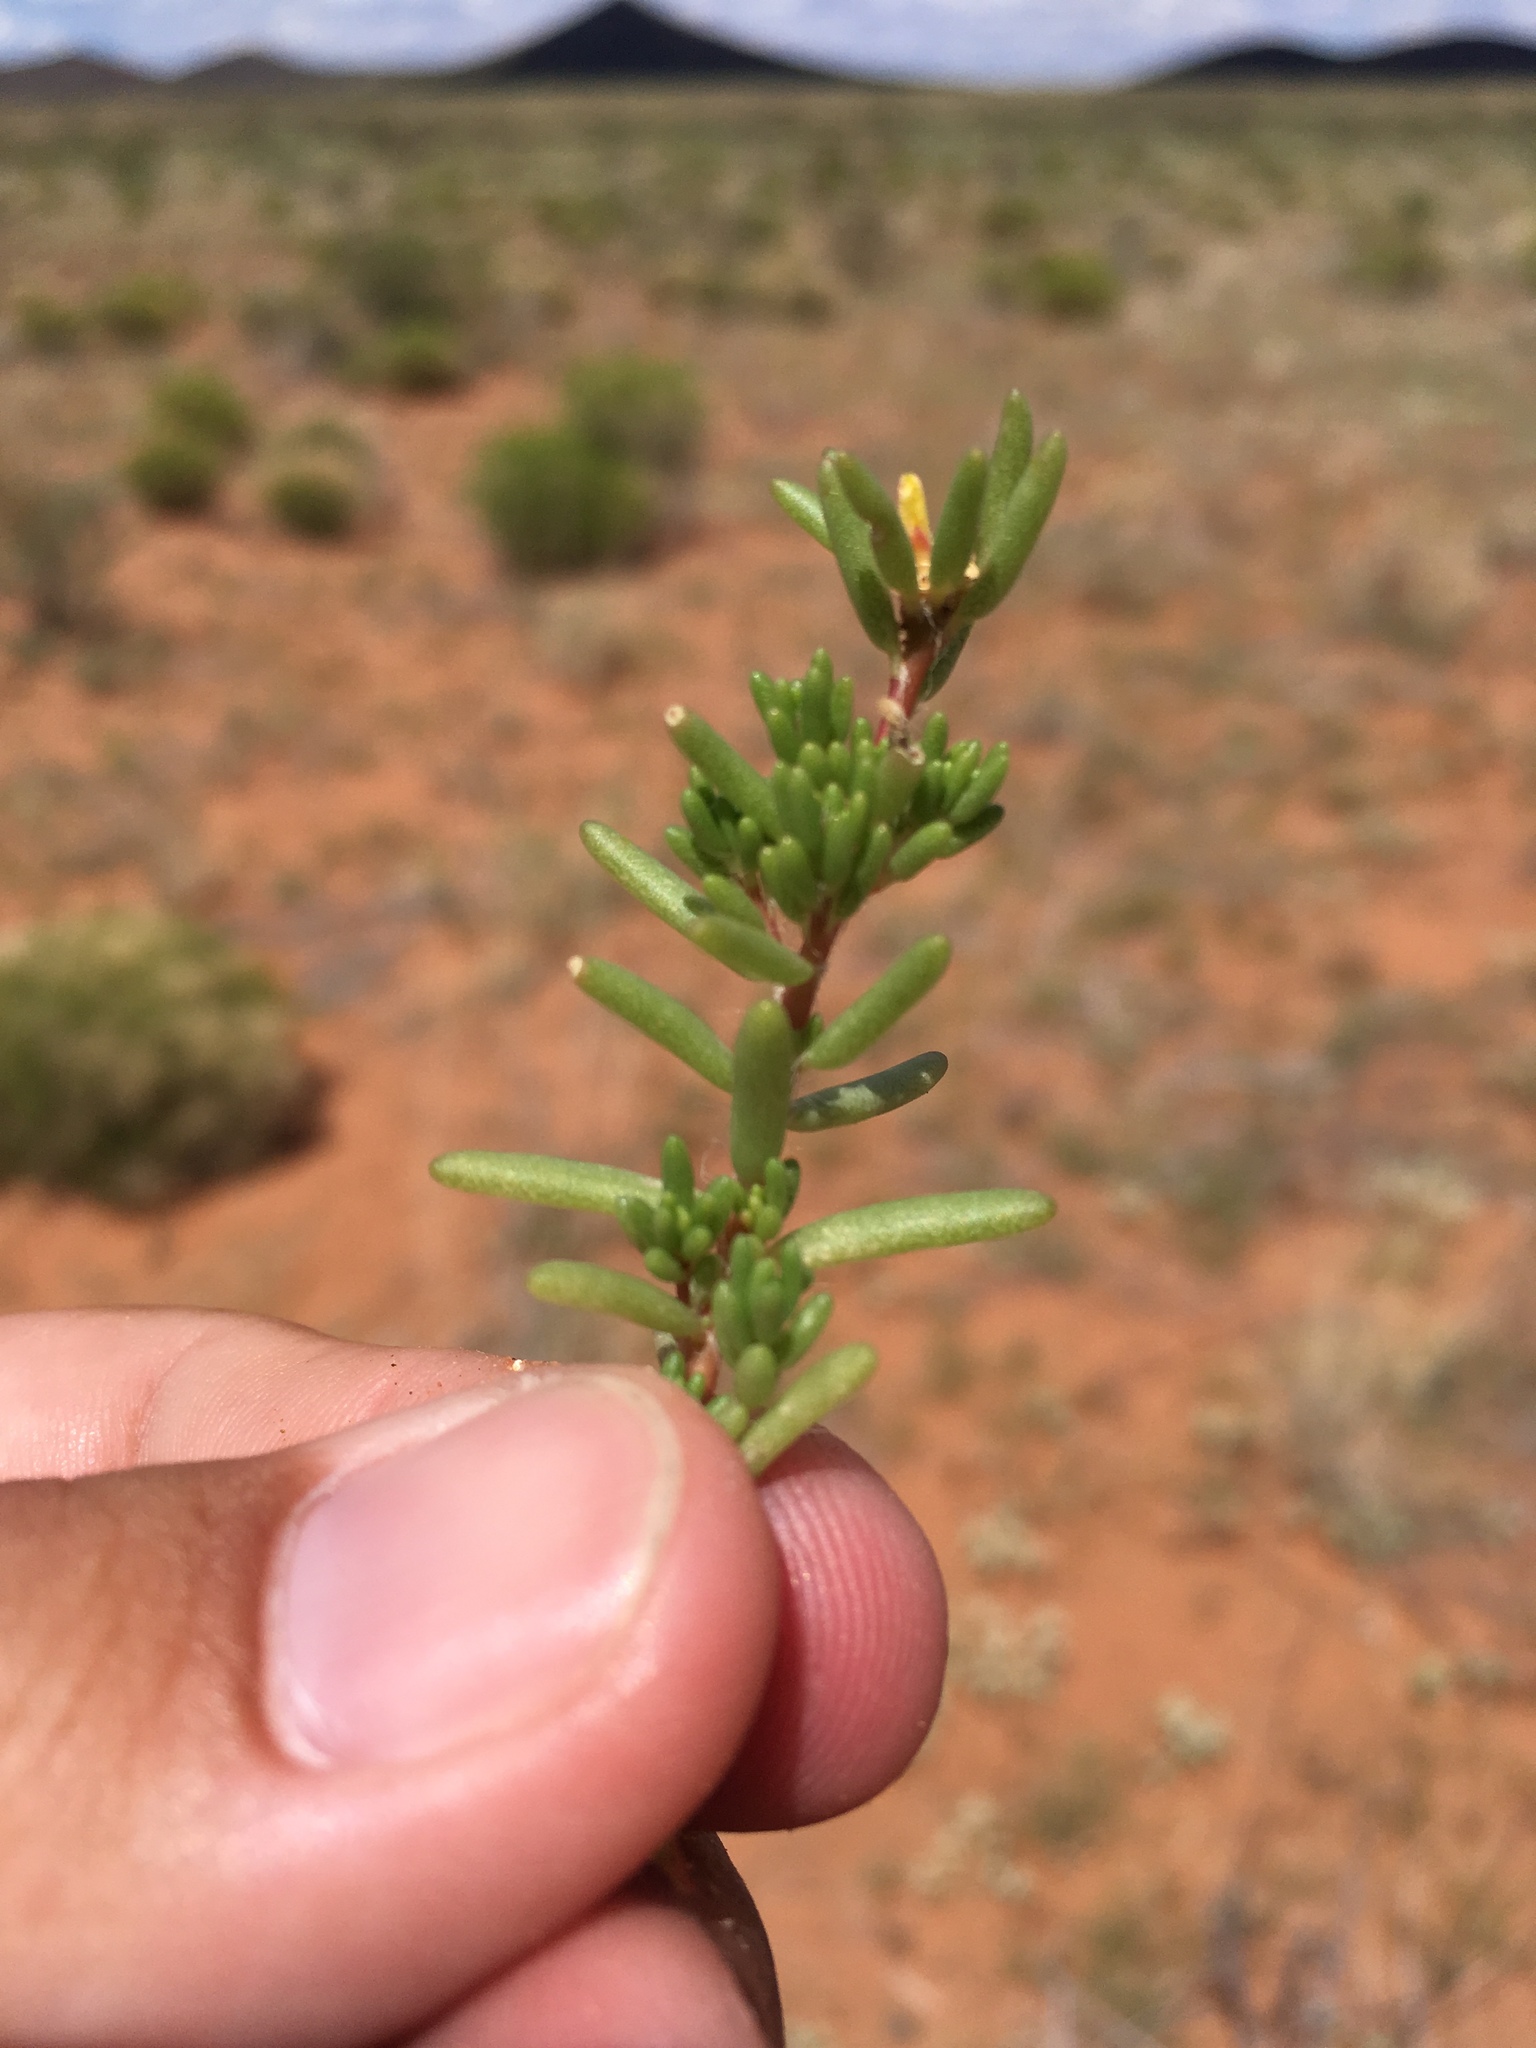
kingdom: Plantae
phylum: Tracheophyta
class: Magnoliopsida
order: Caryophyllales
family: Portulacaceae
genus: Portulaca
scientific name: Portulaca halimoides
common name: Silk cotton purslane
